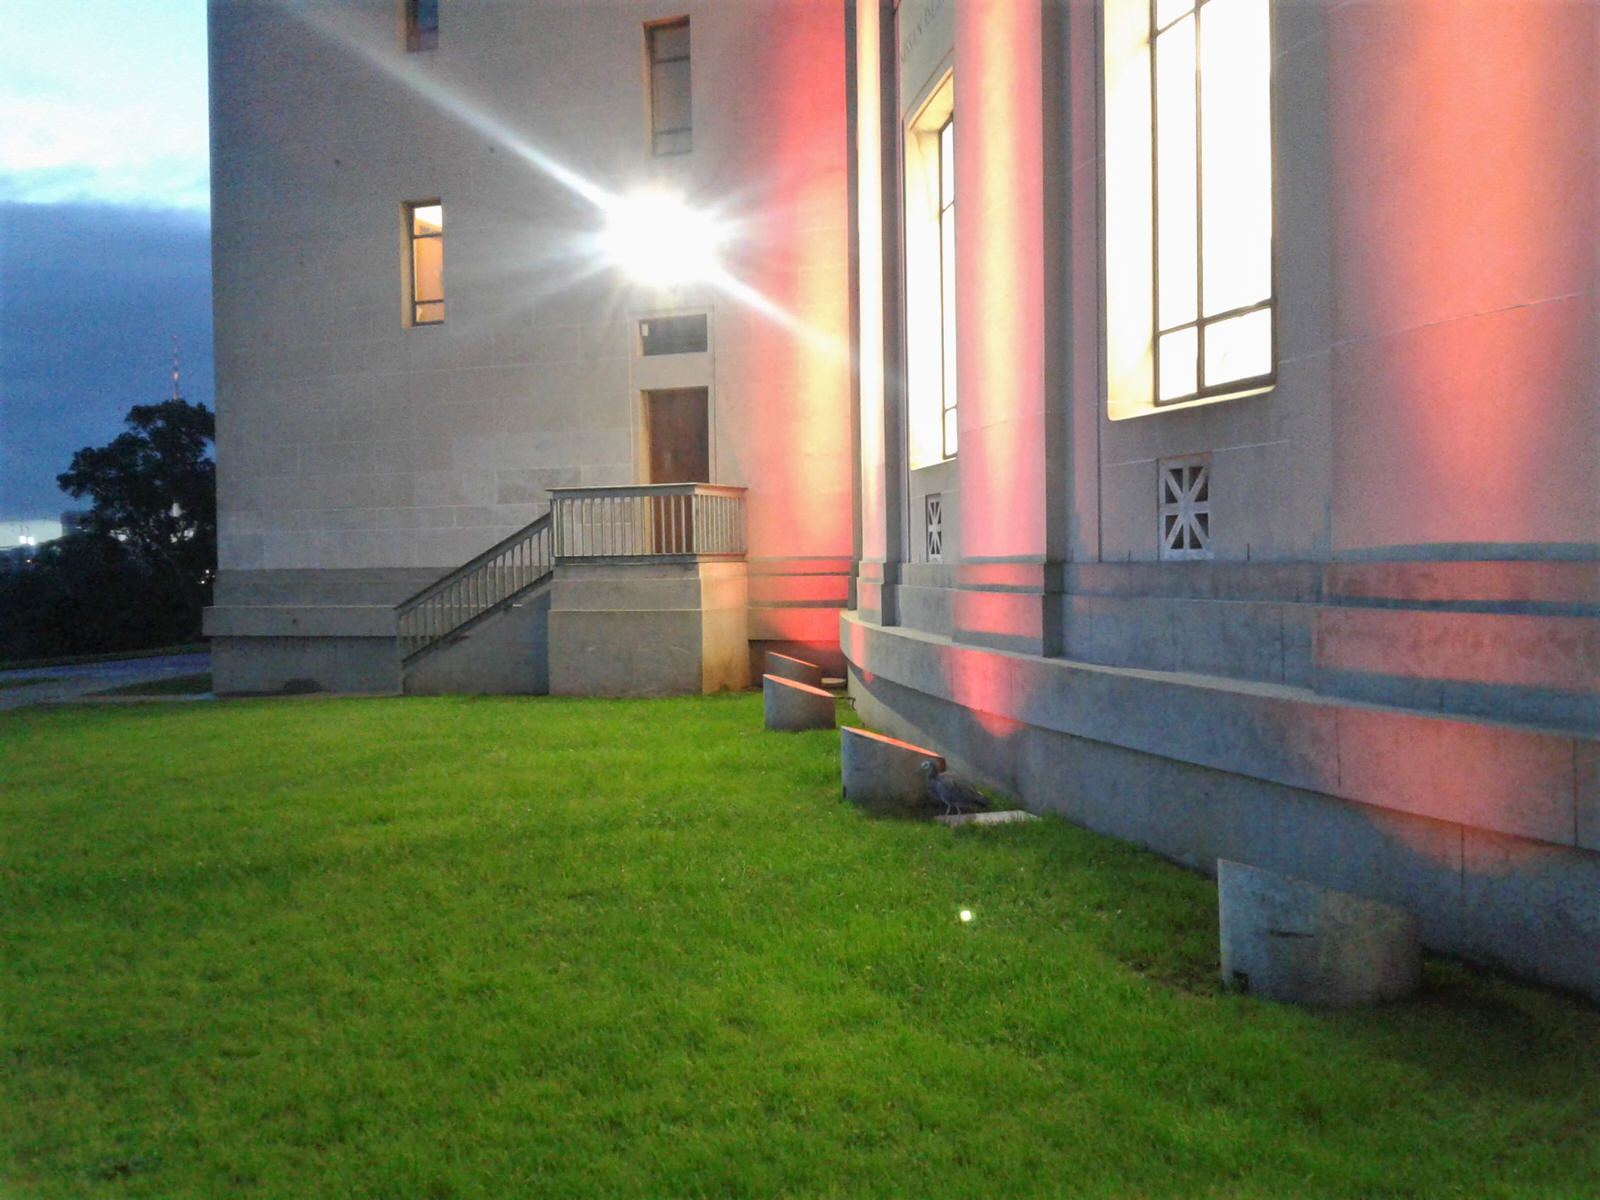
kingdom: Animalia
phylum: Chordata
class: Aves
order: Pelecaniformes
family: Ardeidae
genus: Egretta
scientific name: Egretta novaehollandiae
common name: White-faced heron
